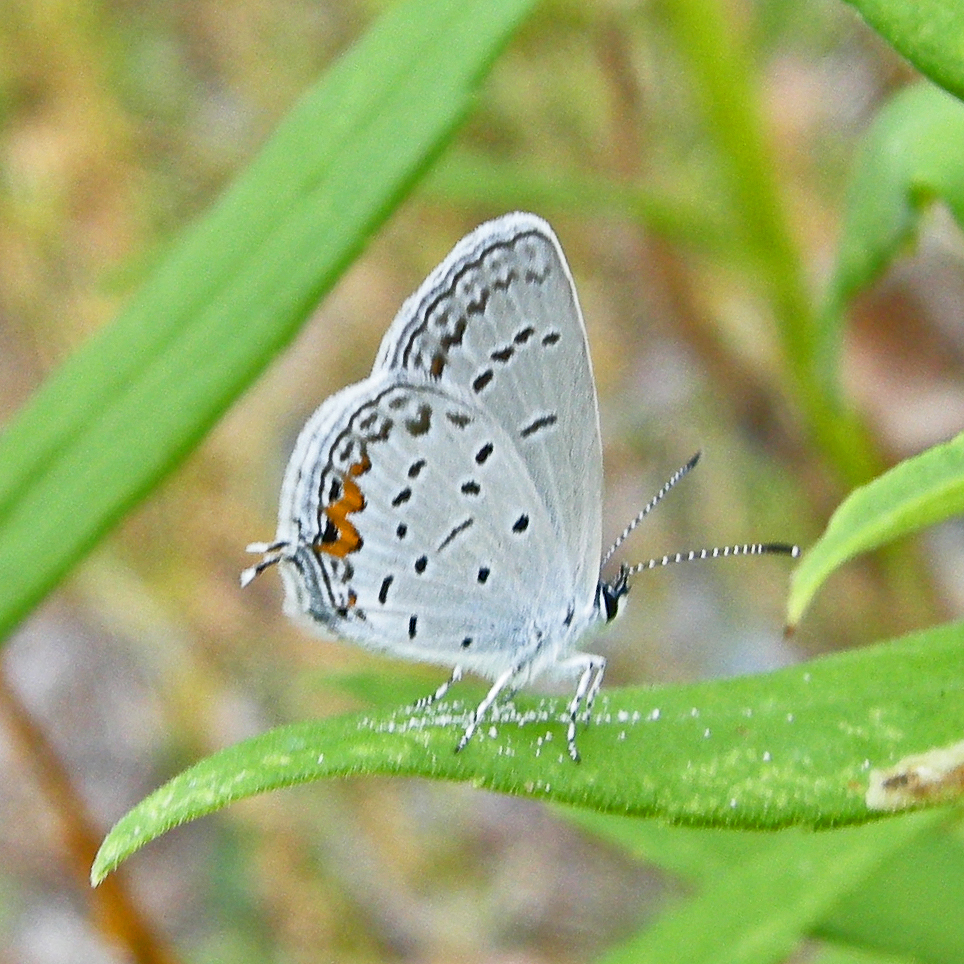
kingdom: Animalia
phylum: Arthropoda
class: Insecta
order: Lepidoptera
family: Lycaenidae
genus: Elkalyce
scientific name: Elkalyce comyntas
